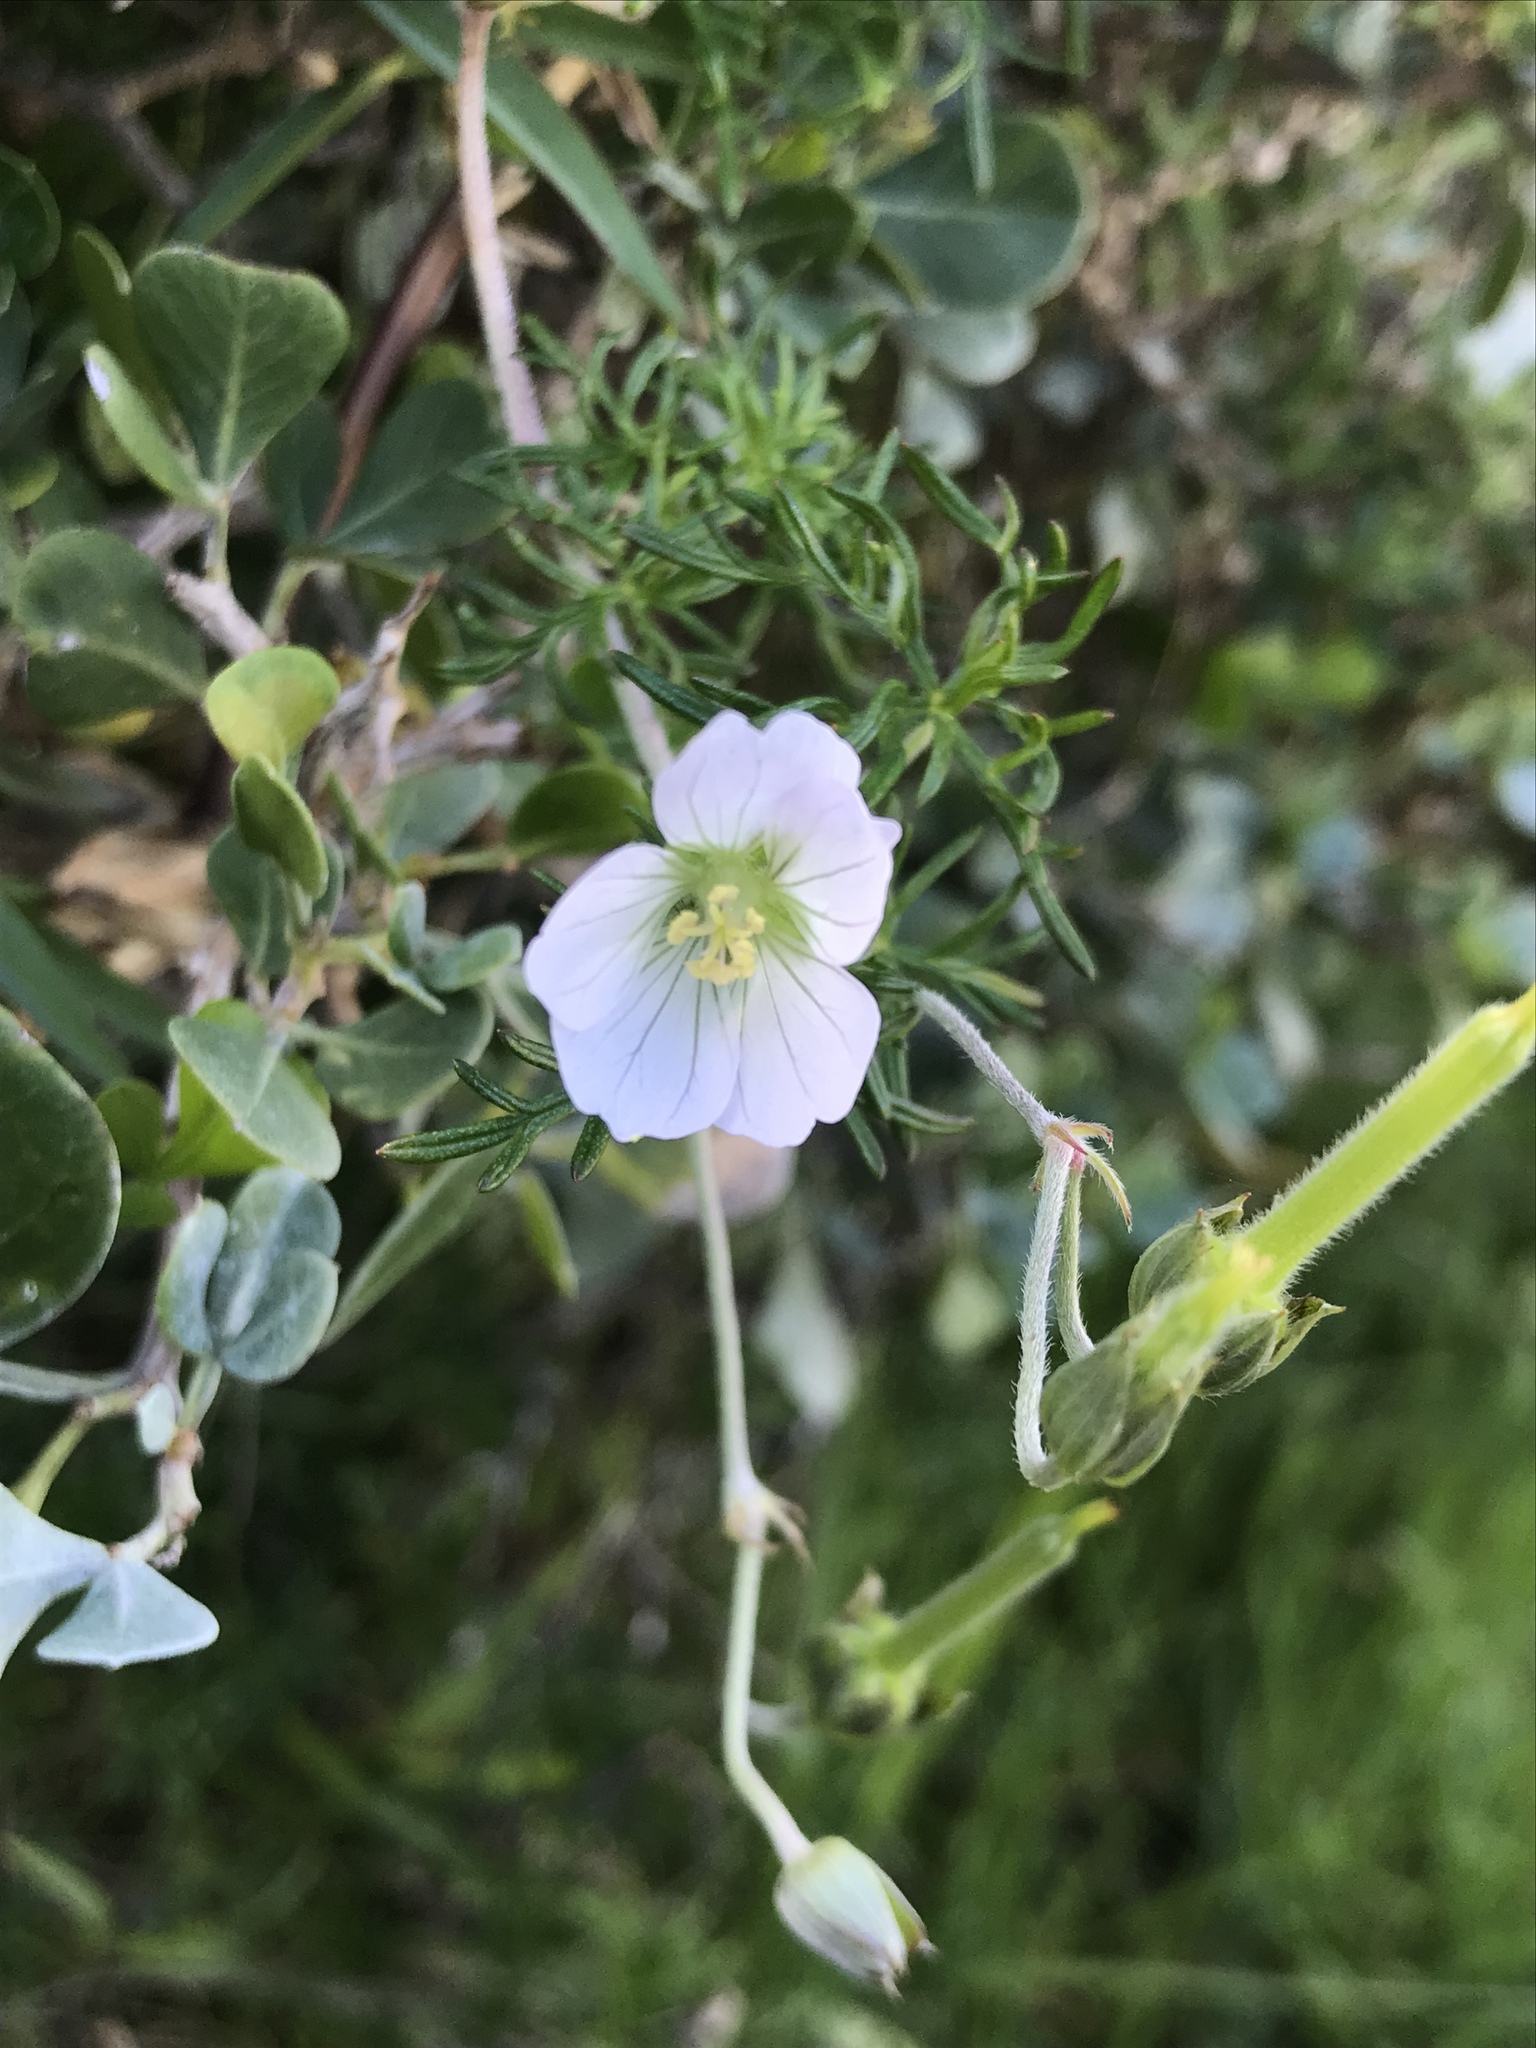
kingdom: Plantae
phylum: Tracheophyta
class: Magnoliopsida
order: Geraniales
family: Geraniaceae
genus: Geranium
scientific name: Geranium incanum
